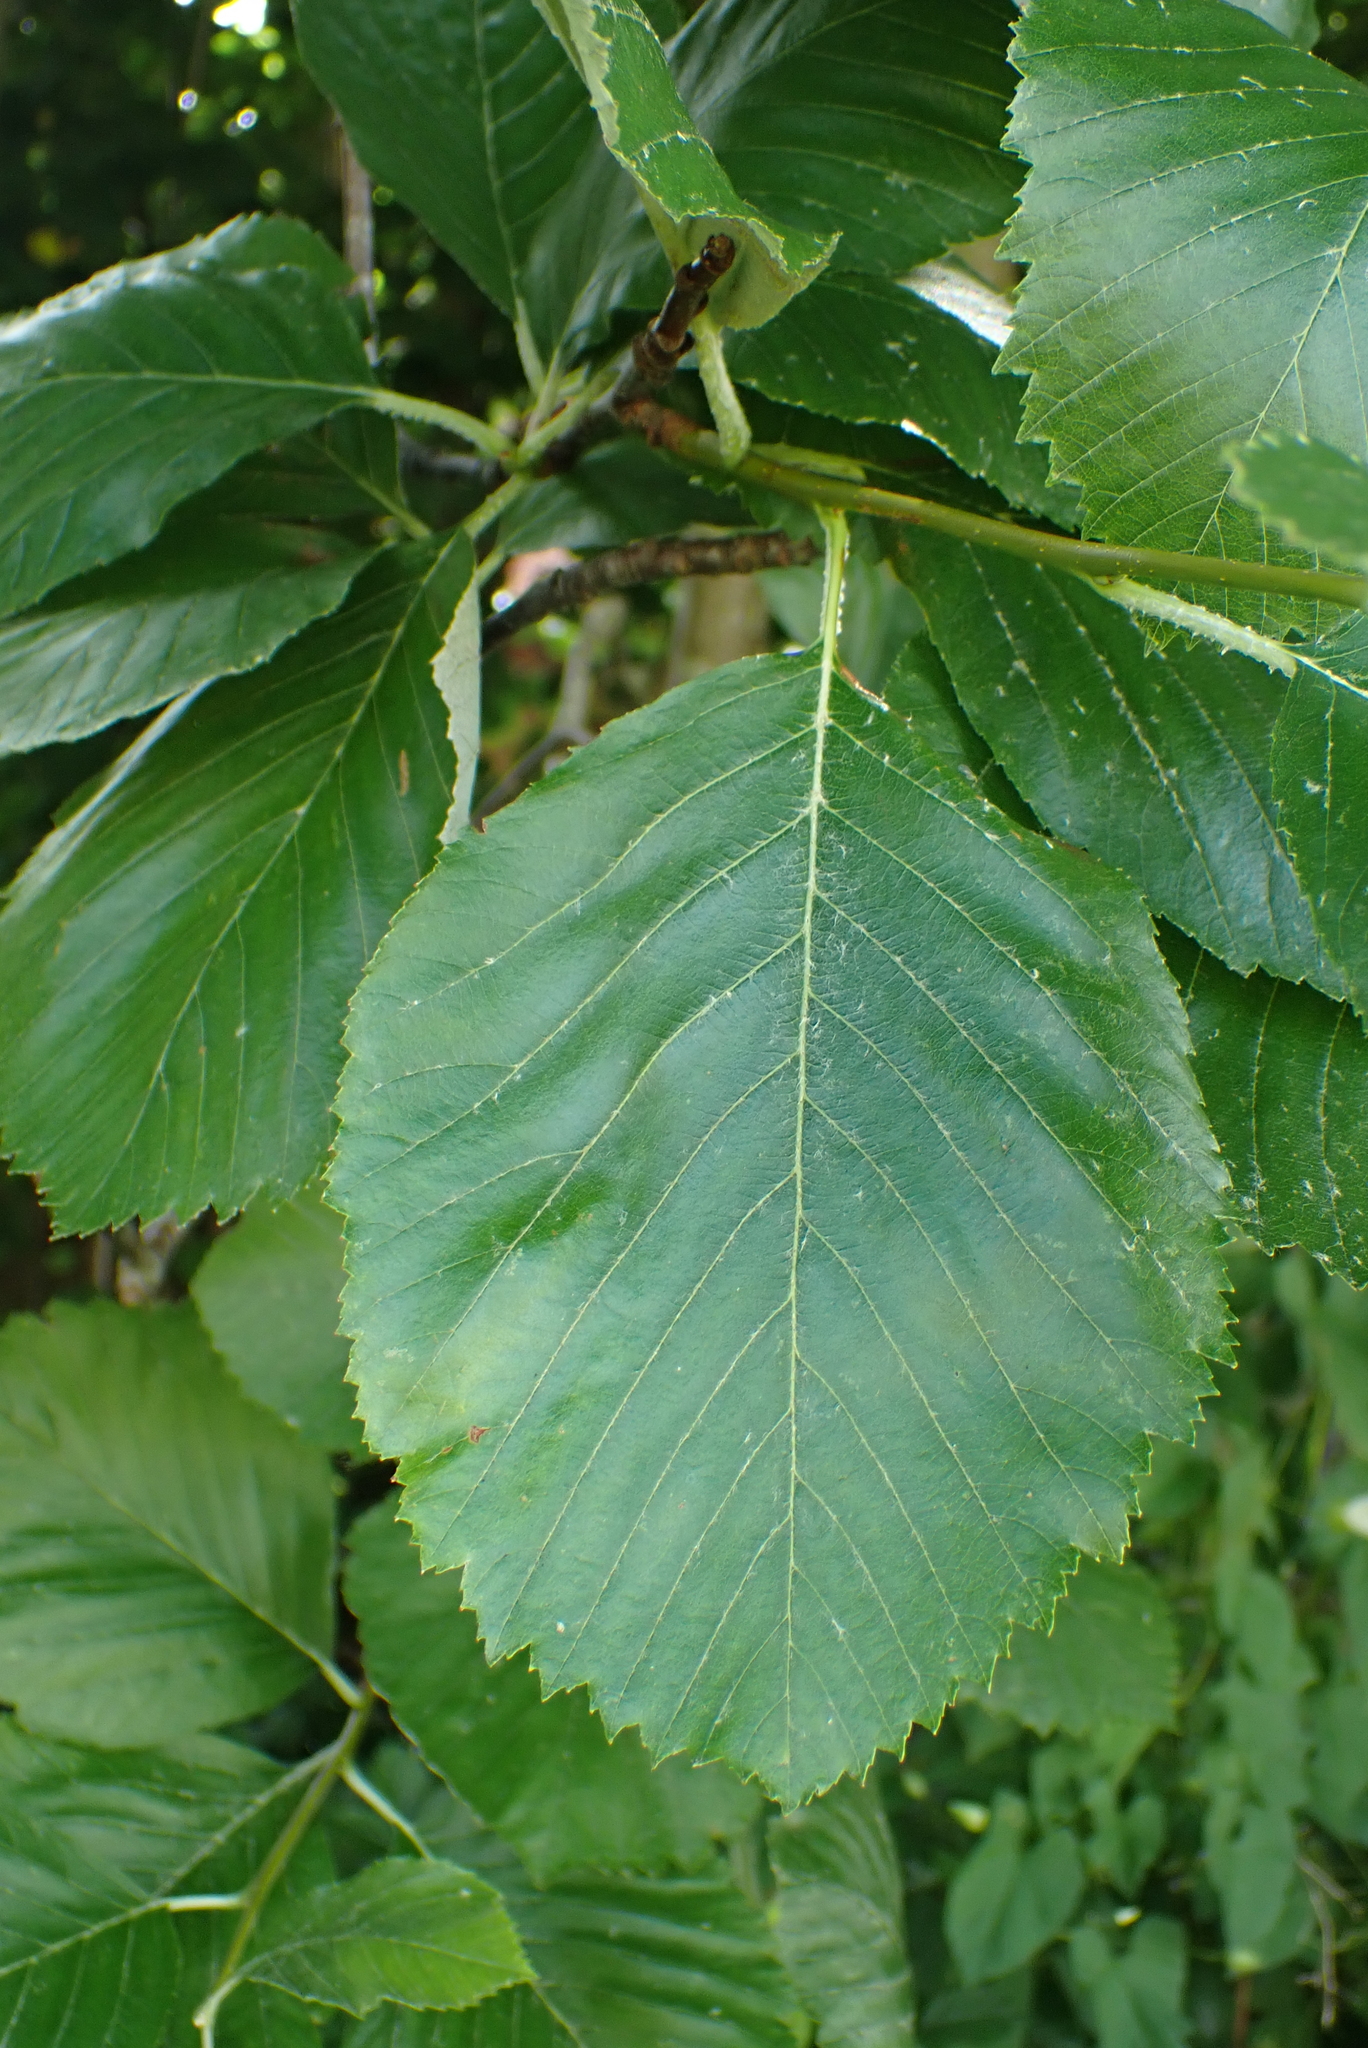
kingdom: Plantae
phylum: Tracheophyta
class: Magnoliopsida
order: Rosales
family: Rosaceae
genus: Aria
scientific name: Aria edulis
